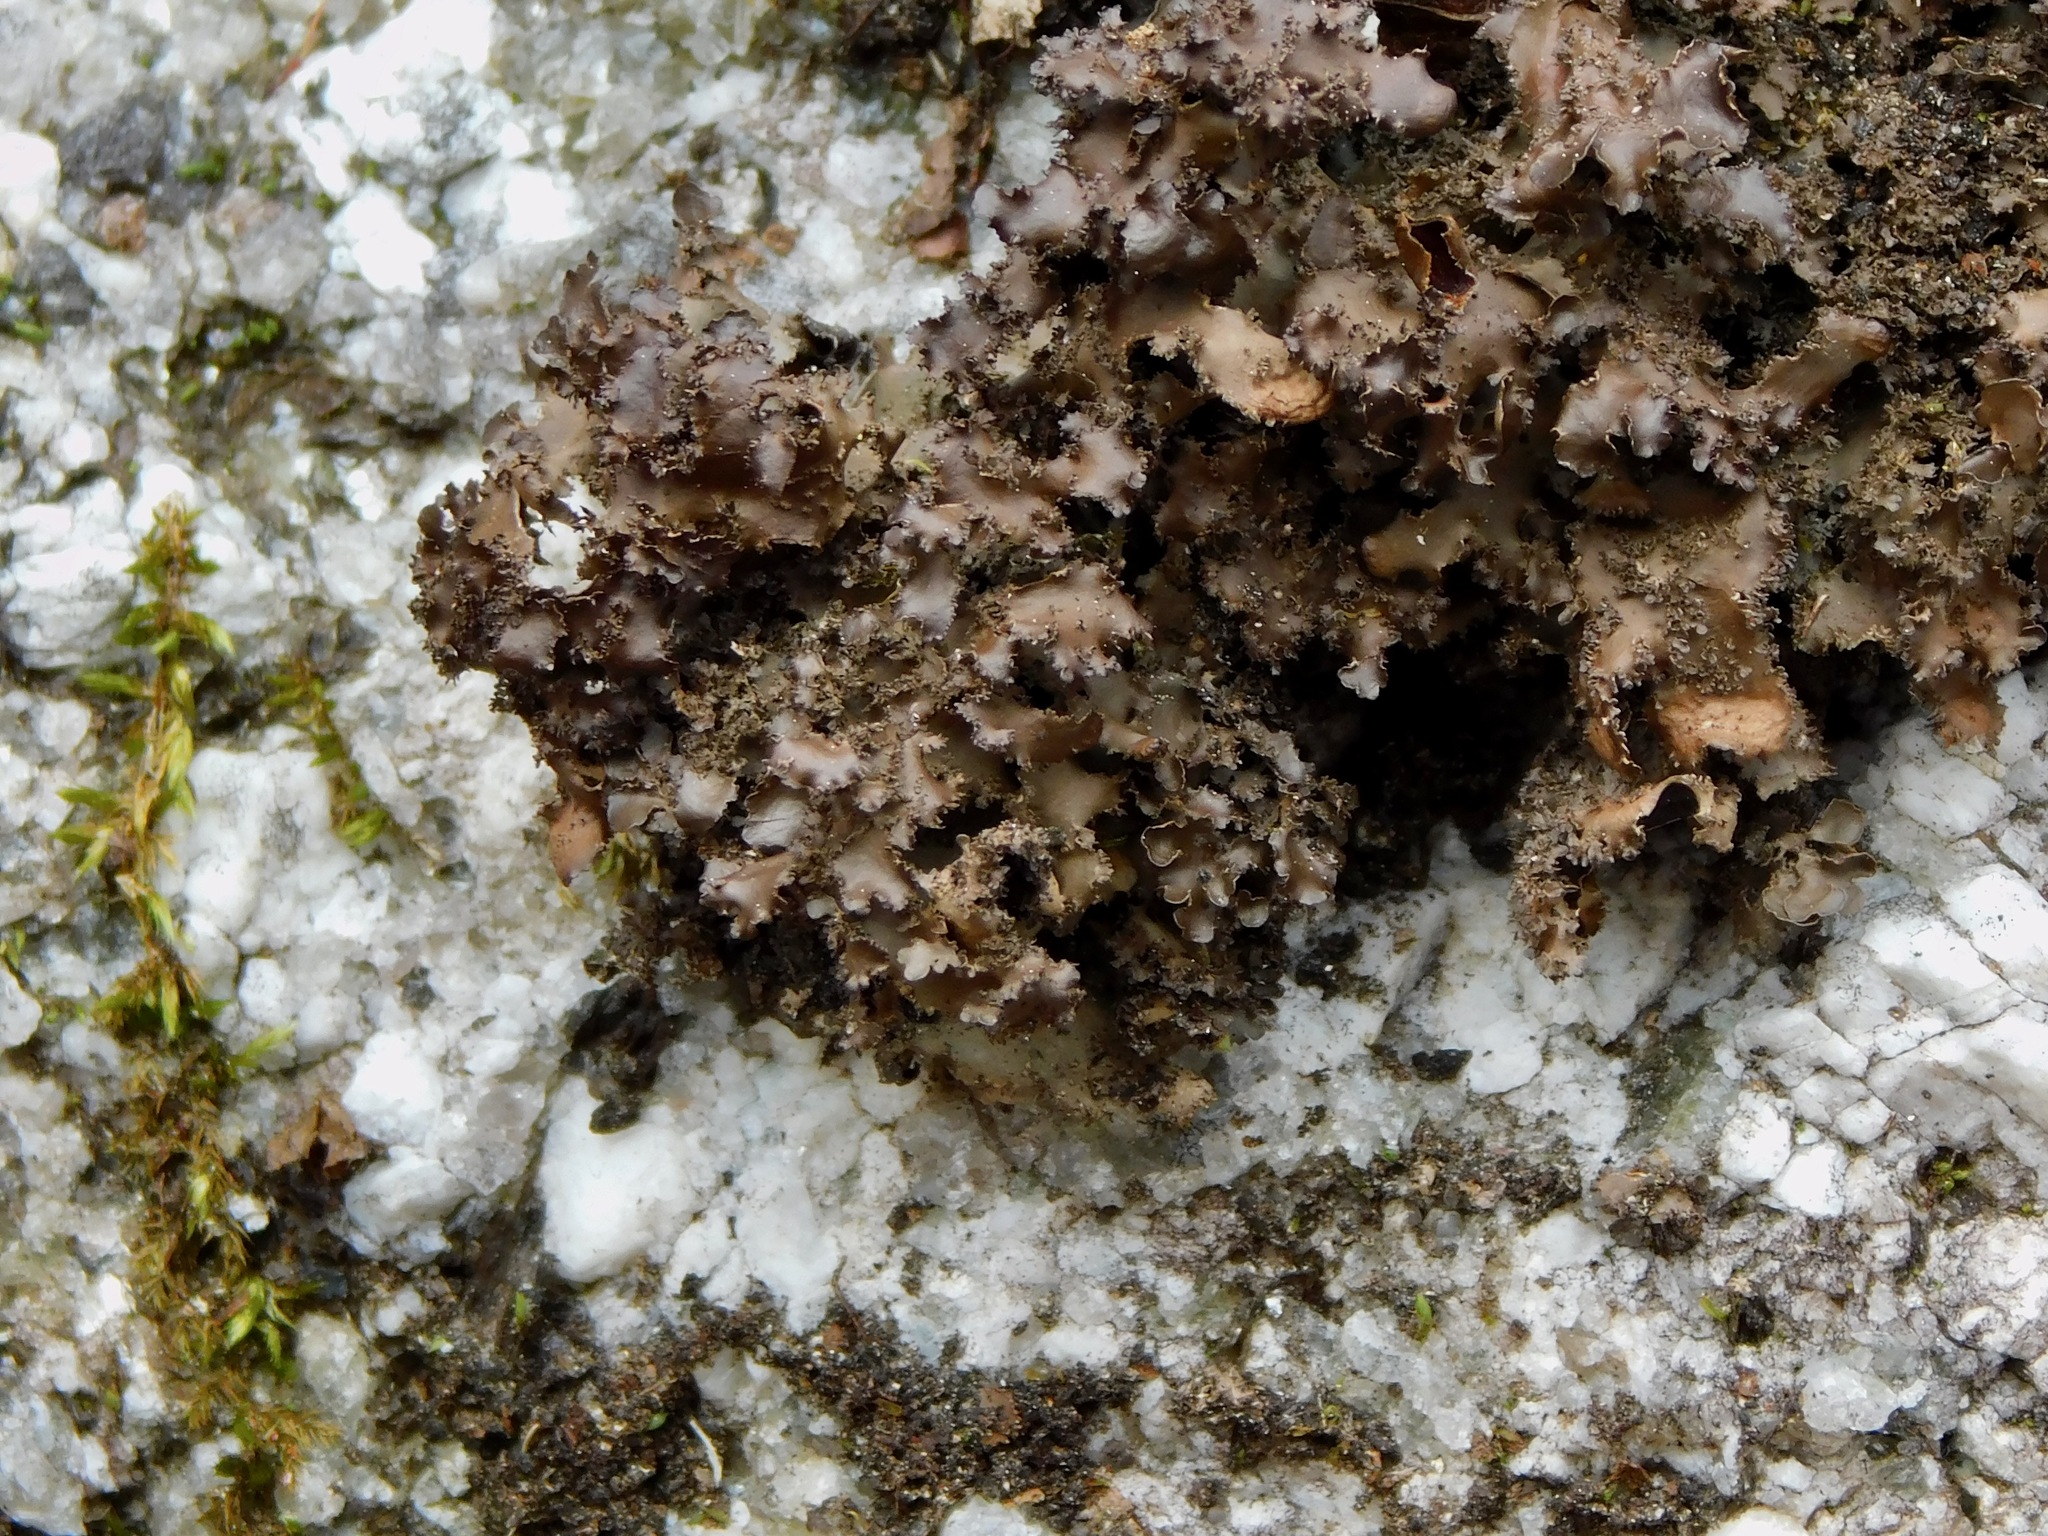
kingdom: Fungi
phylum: Ascomycota
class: Lecanoromycetes
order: Peltigerales
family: Lobariaceae
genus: Sticta
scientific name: Sticta carolinensis
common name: Carolina moon lichen
